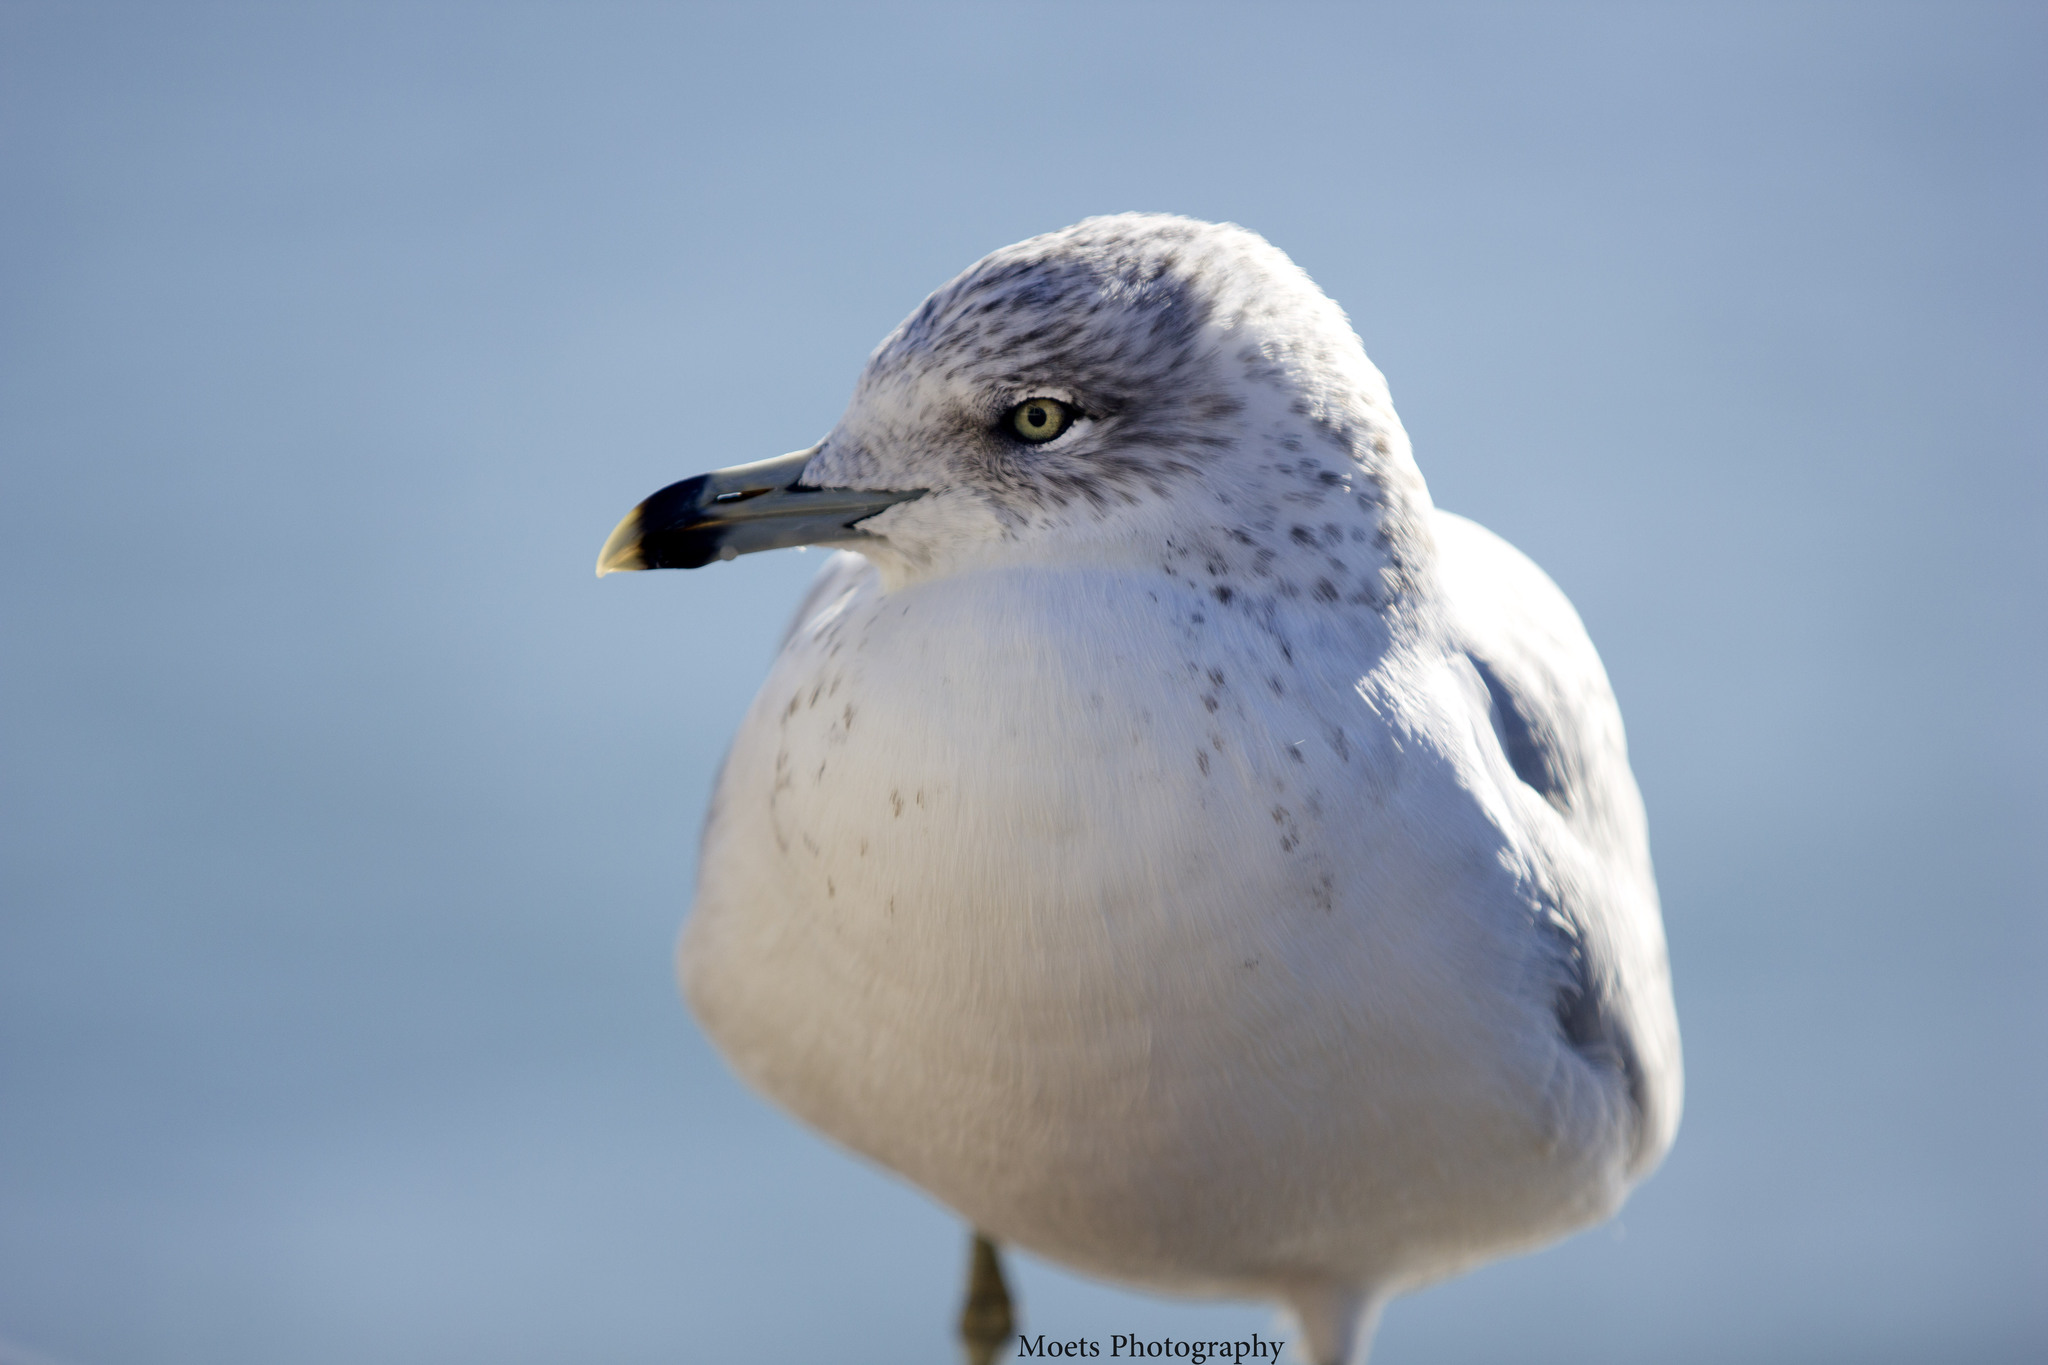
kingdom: Animalia
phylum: Chordata
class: Aves
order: Charadriiformes
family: Laridae
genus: Larus
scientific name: Larus delawarensis
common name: Ring-billed gull
